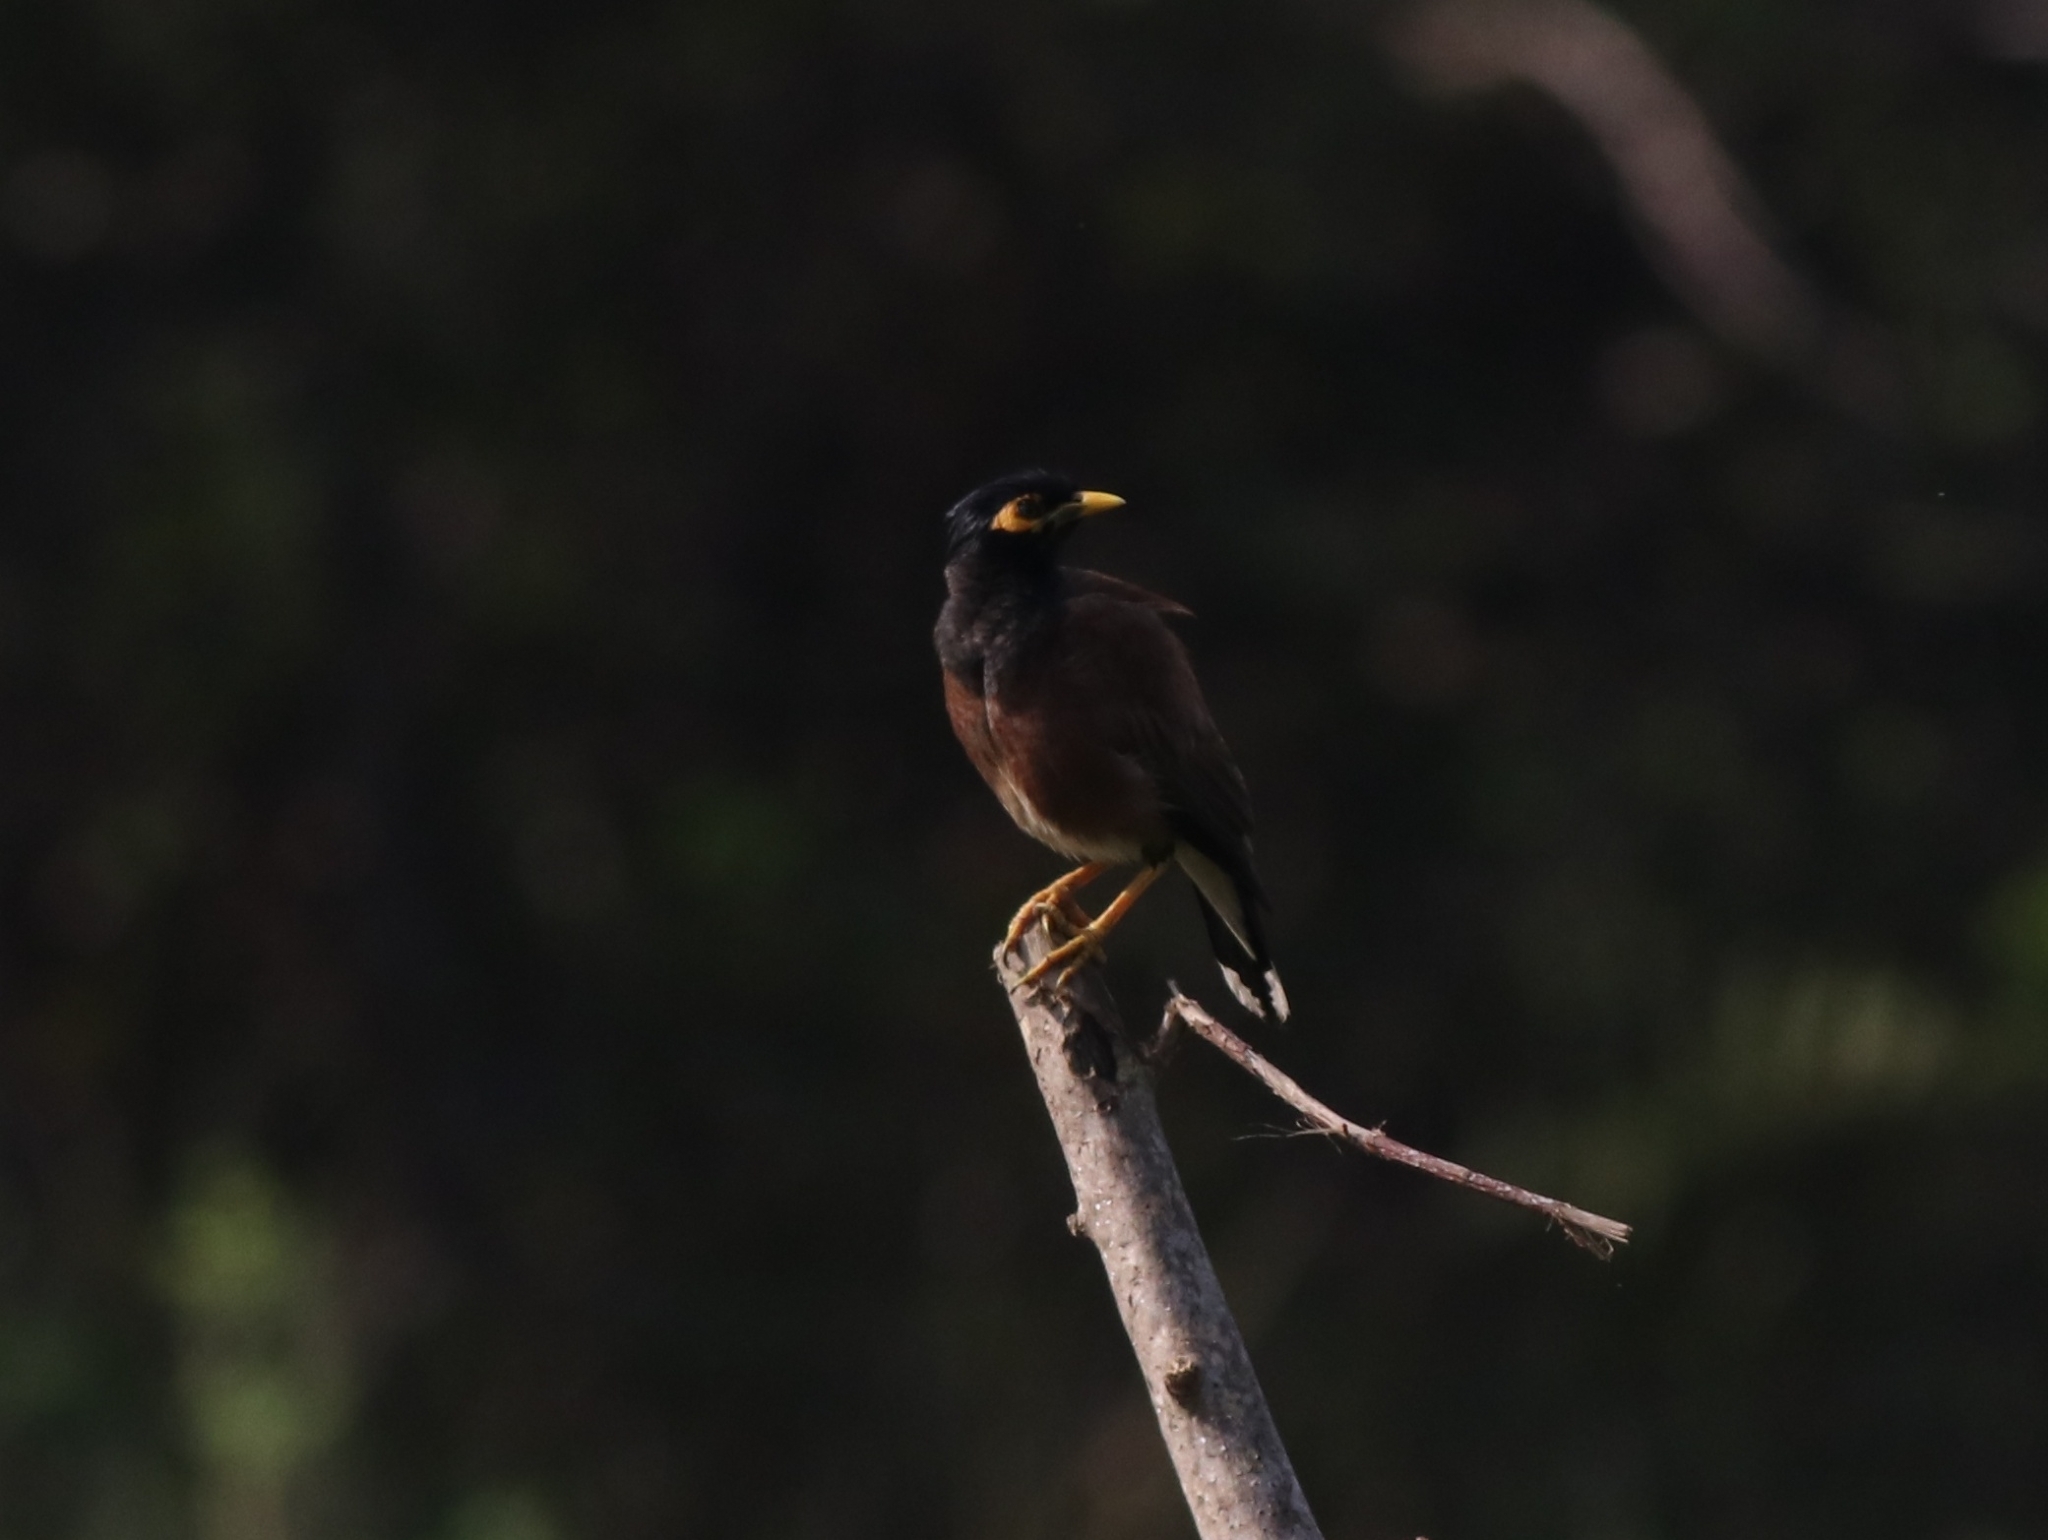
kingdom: Animalia
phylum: Chordata
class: Aves
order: Passeriformes
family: Sturnidae
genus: Acridotheres
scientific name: Acridotheres tristis
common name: Common myna
